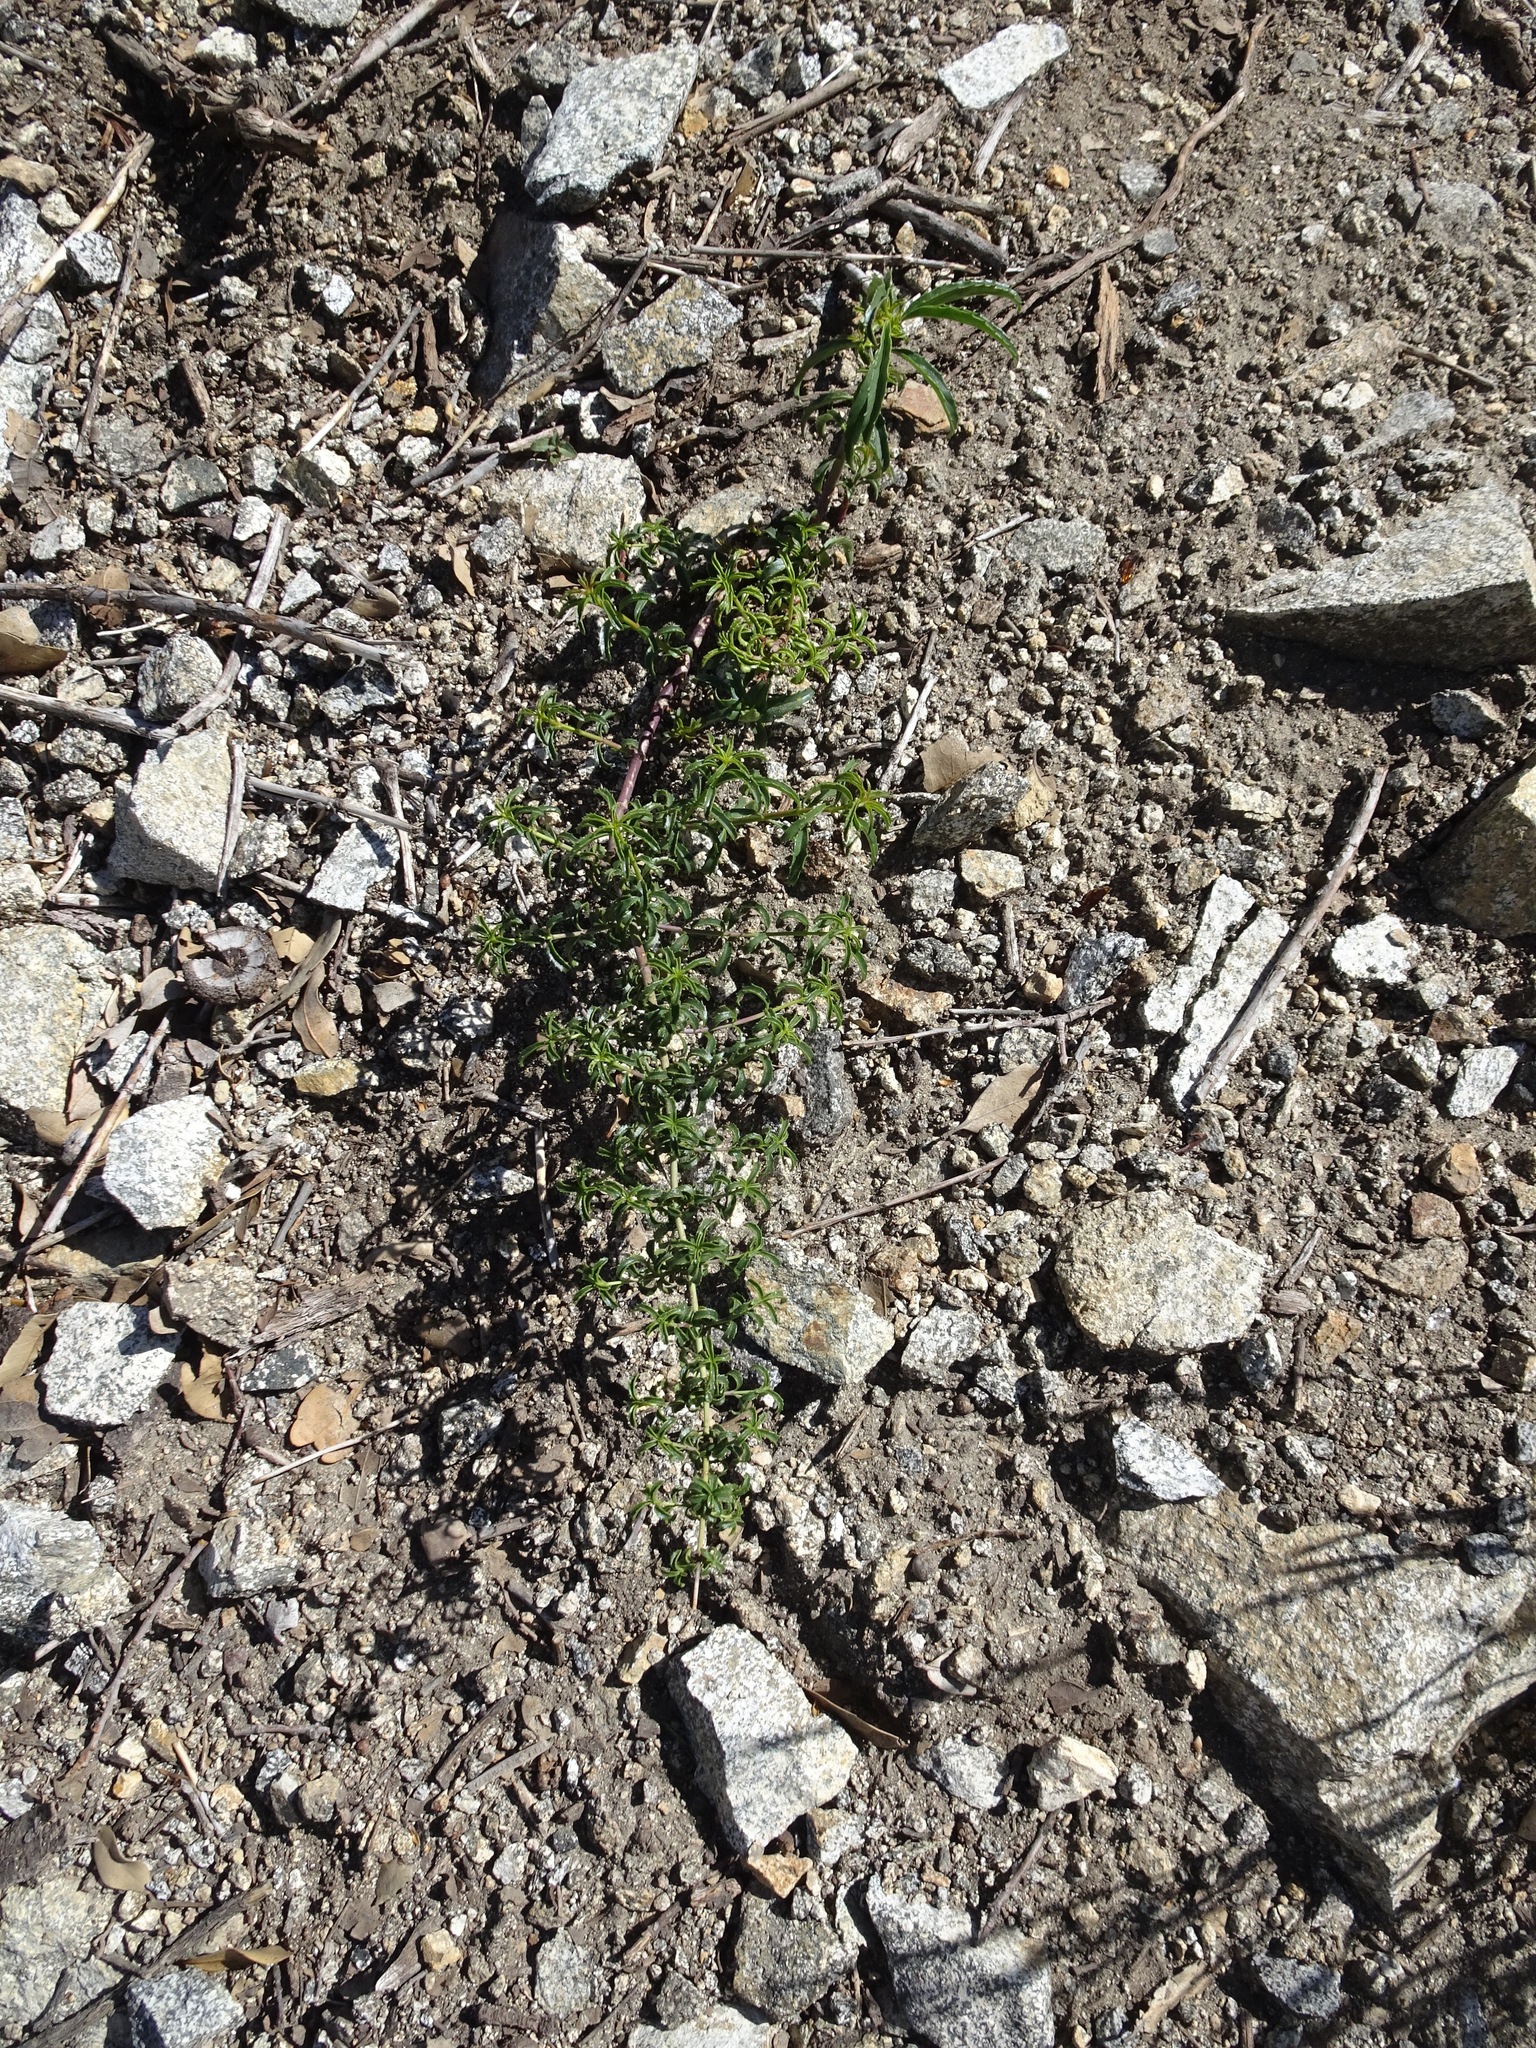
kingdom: Plantae
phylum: Tracheophyta
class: Magnoliopsida
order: Lamiales
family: Plantaginaceae
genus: Keckiella
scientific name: Keckiella ternata
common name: Scarlet keckiella
